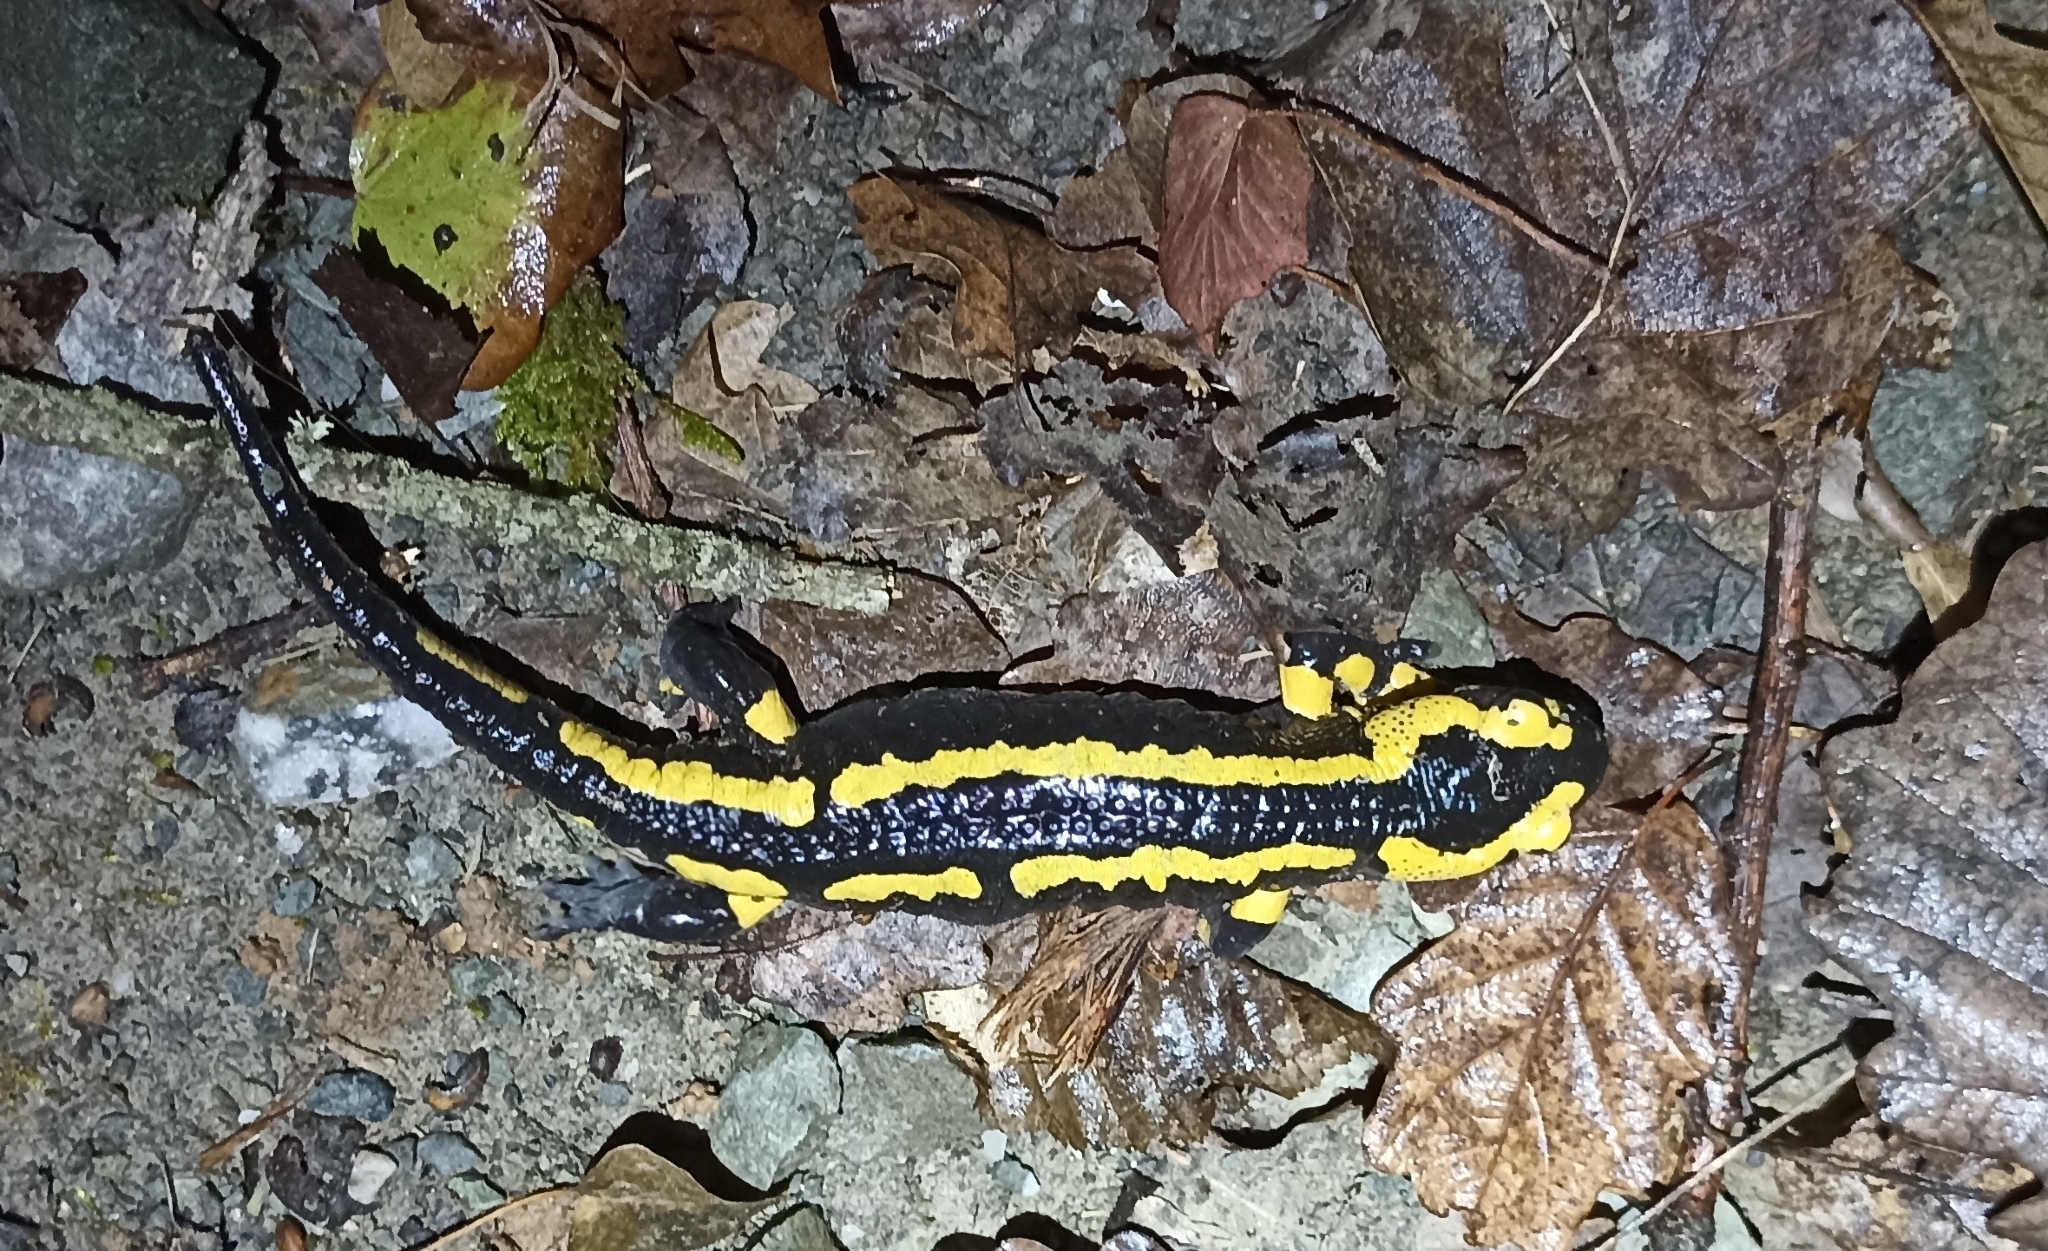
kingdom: Animalia
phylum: Chordata
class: Amphibia
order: Caudata
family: Salamandridae
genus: Salamandra
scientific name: Salamandra salamandra
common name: Fire salamander
